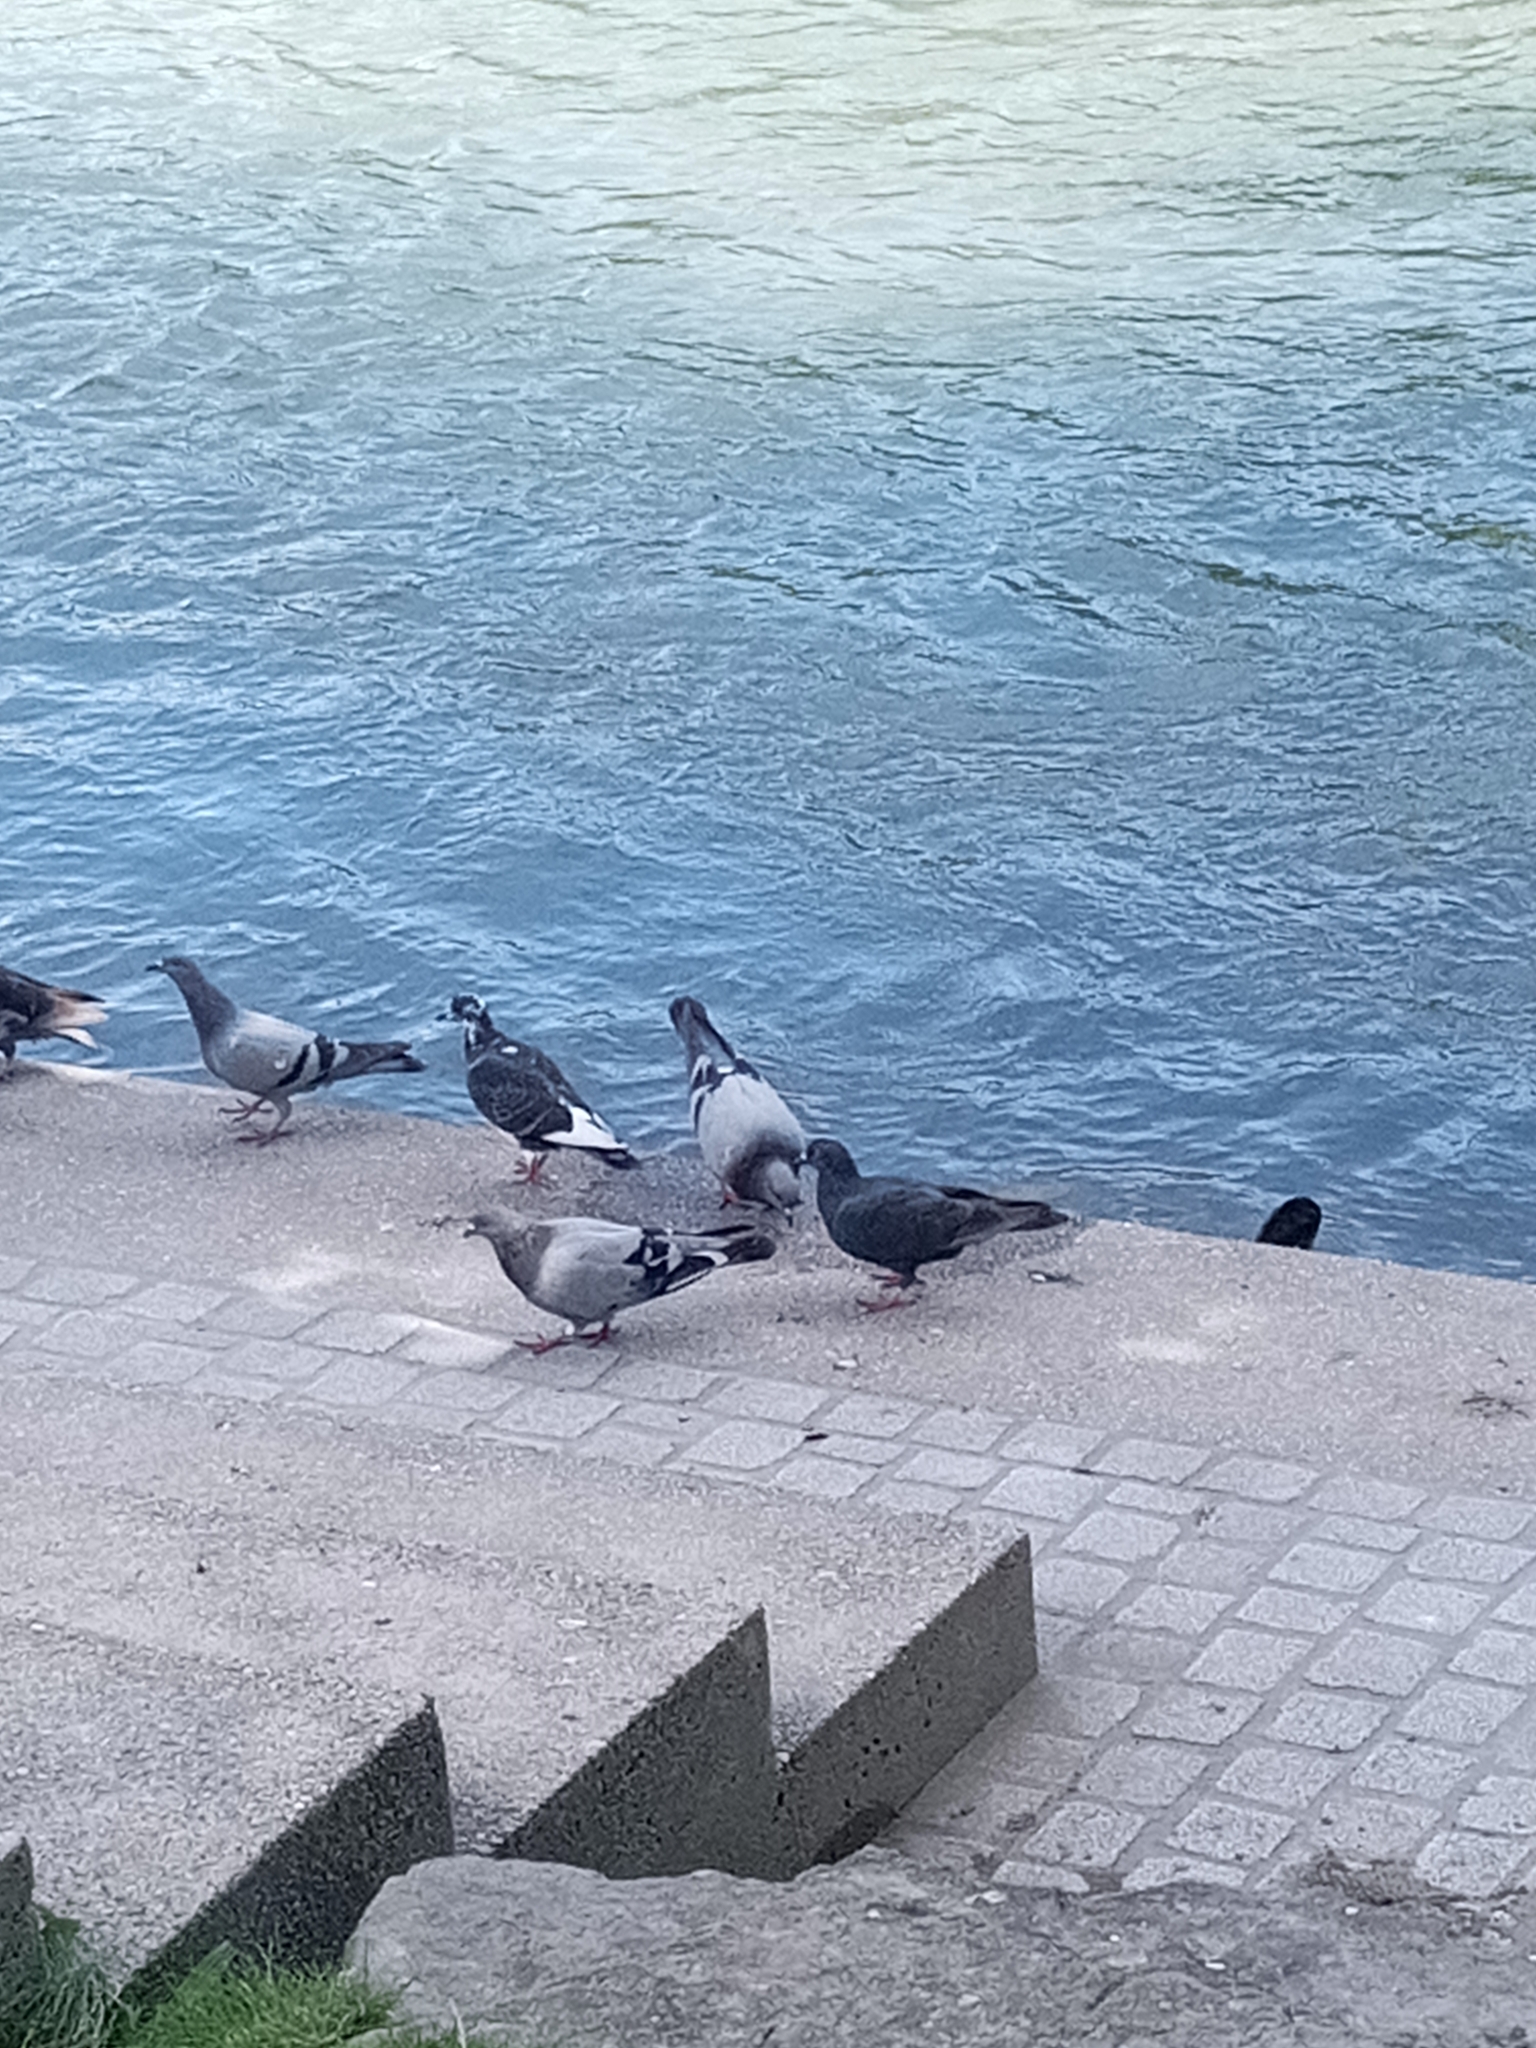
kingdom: Animalia
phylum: Chordata
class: Aves
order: Columbiformes
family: Columbidae
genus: Columba
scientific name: Columba livia
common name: Rock pigeon
